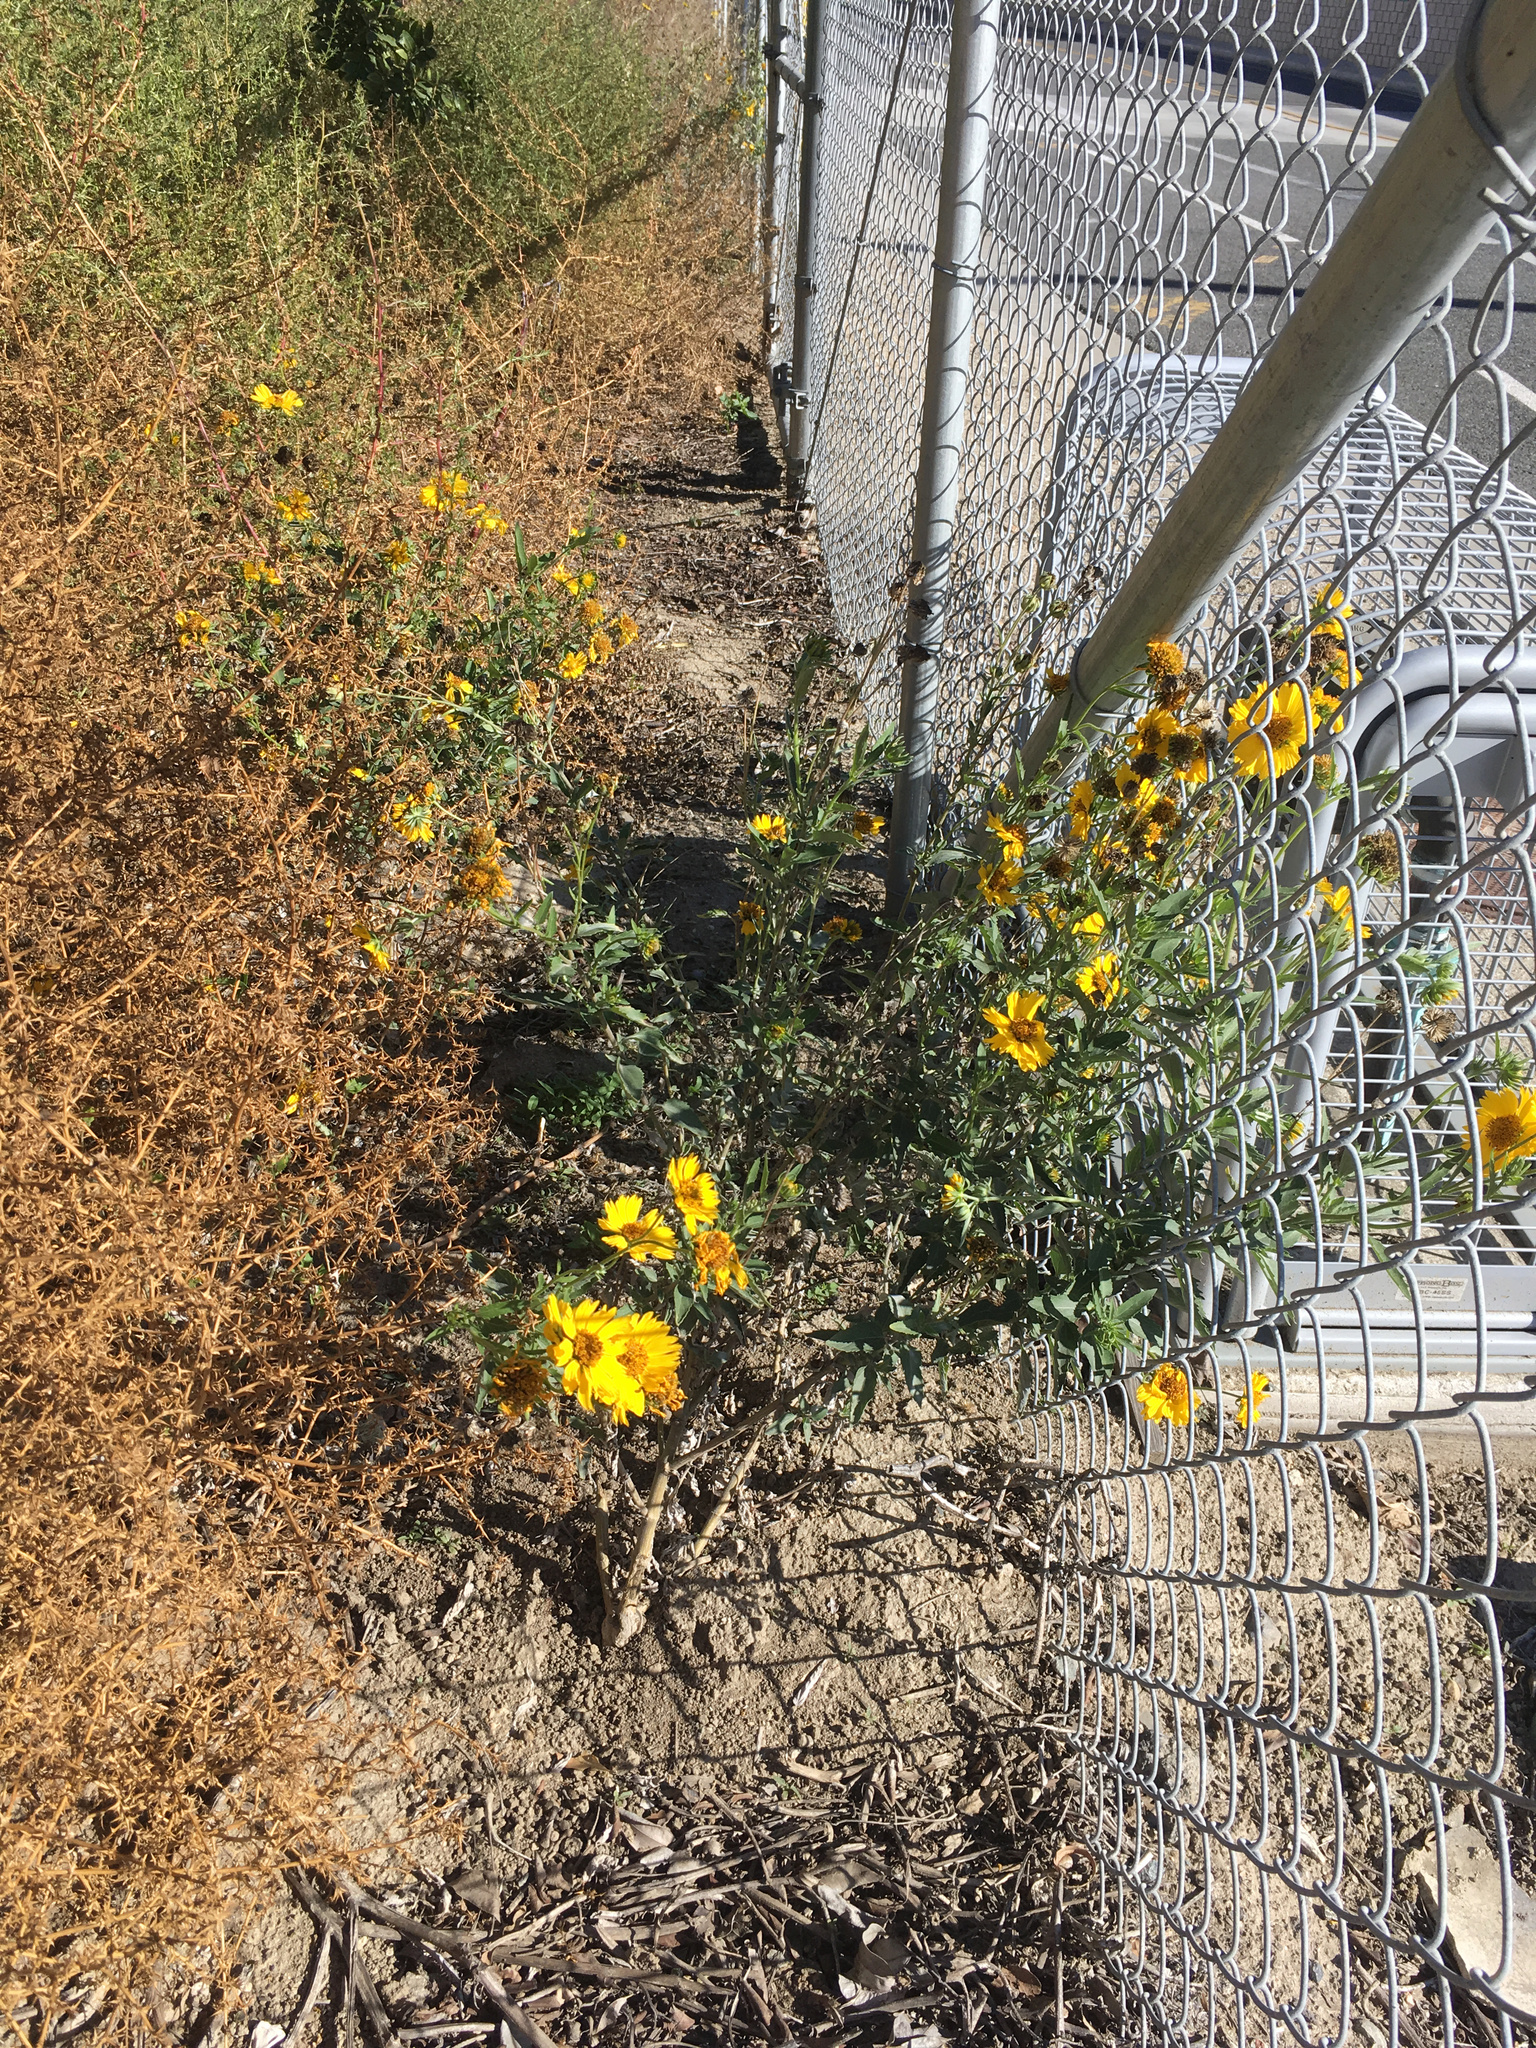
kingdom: Plantae
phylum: Tracheophyta
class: Magnoliopsida
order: Asterales
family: Asteraceae
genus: Verbesina
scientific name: Verbesina encelioides
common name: Golden crownbeard
